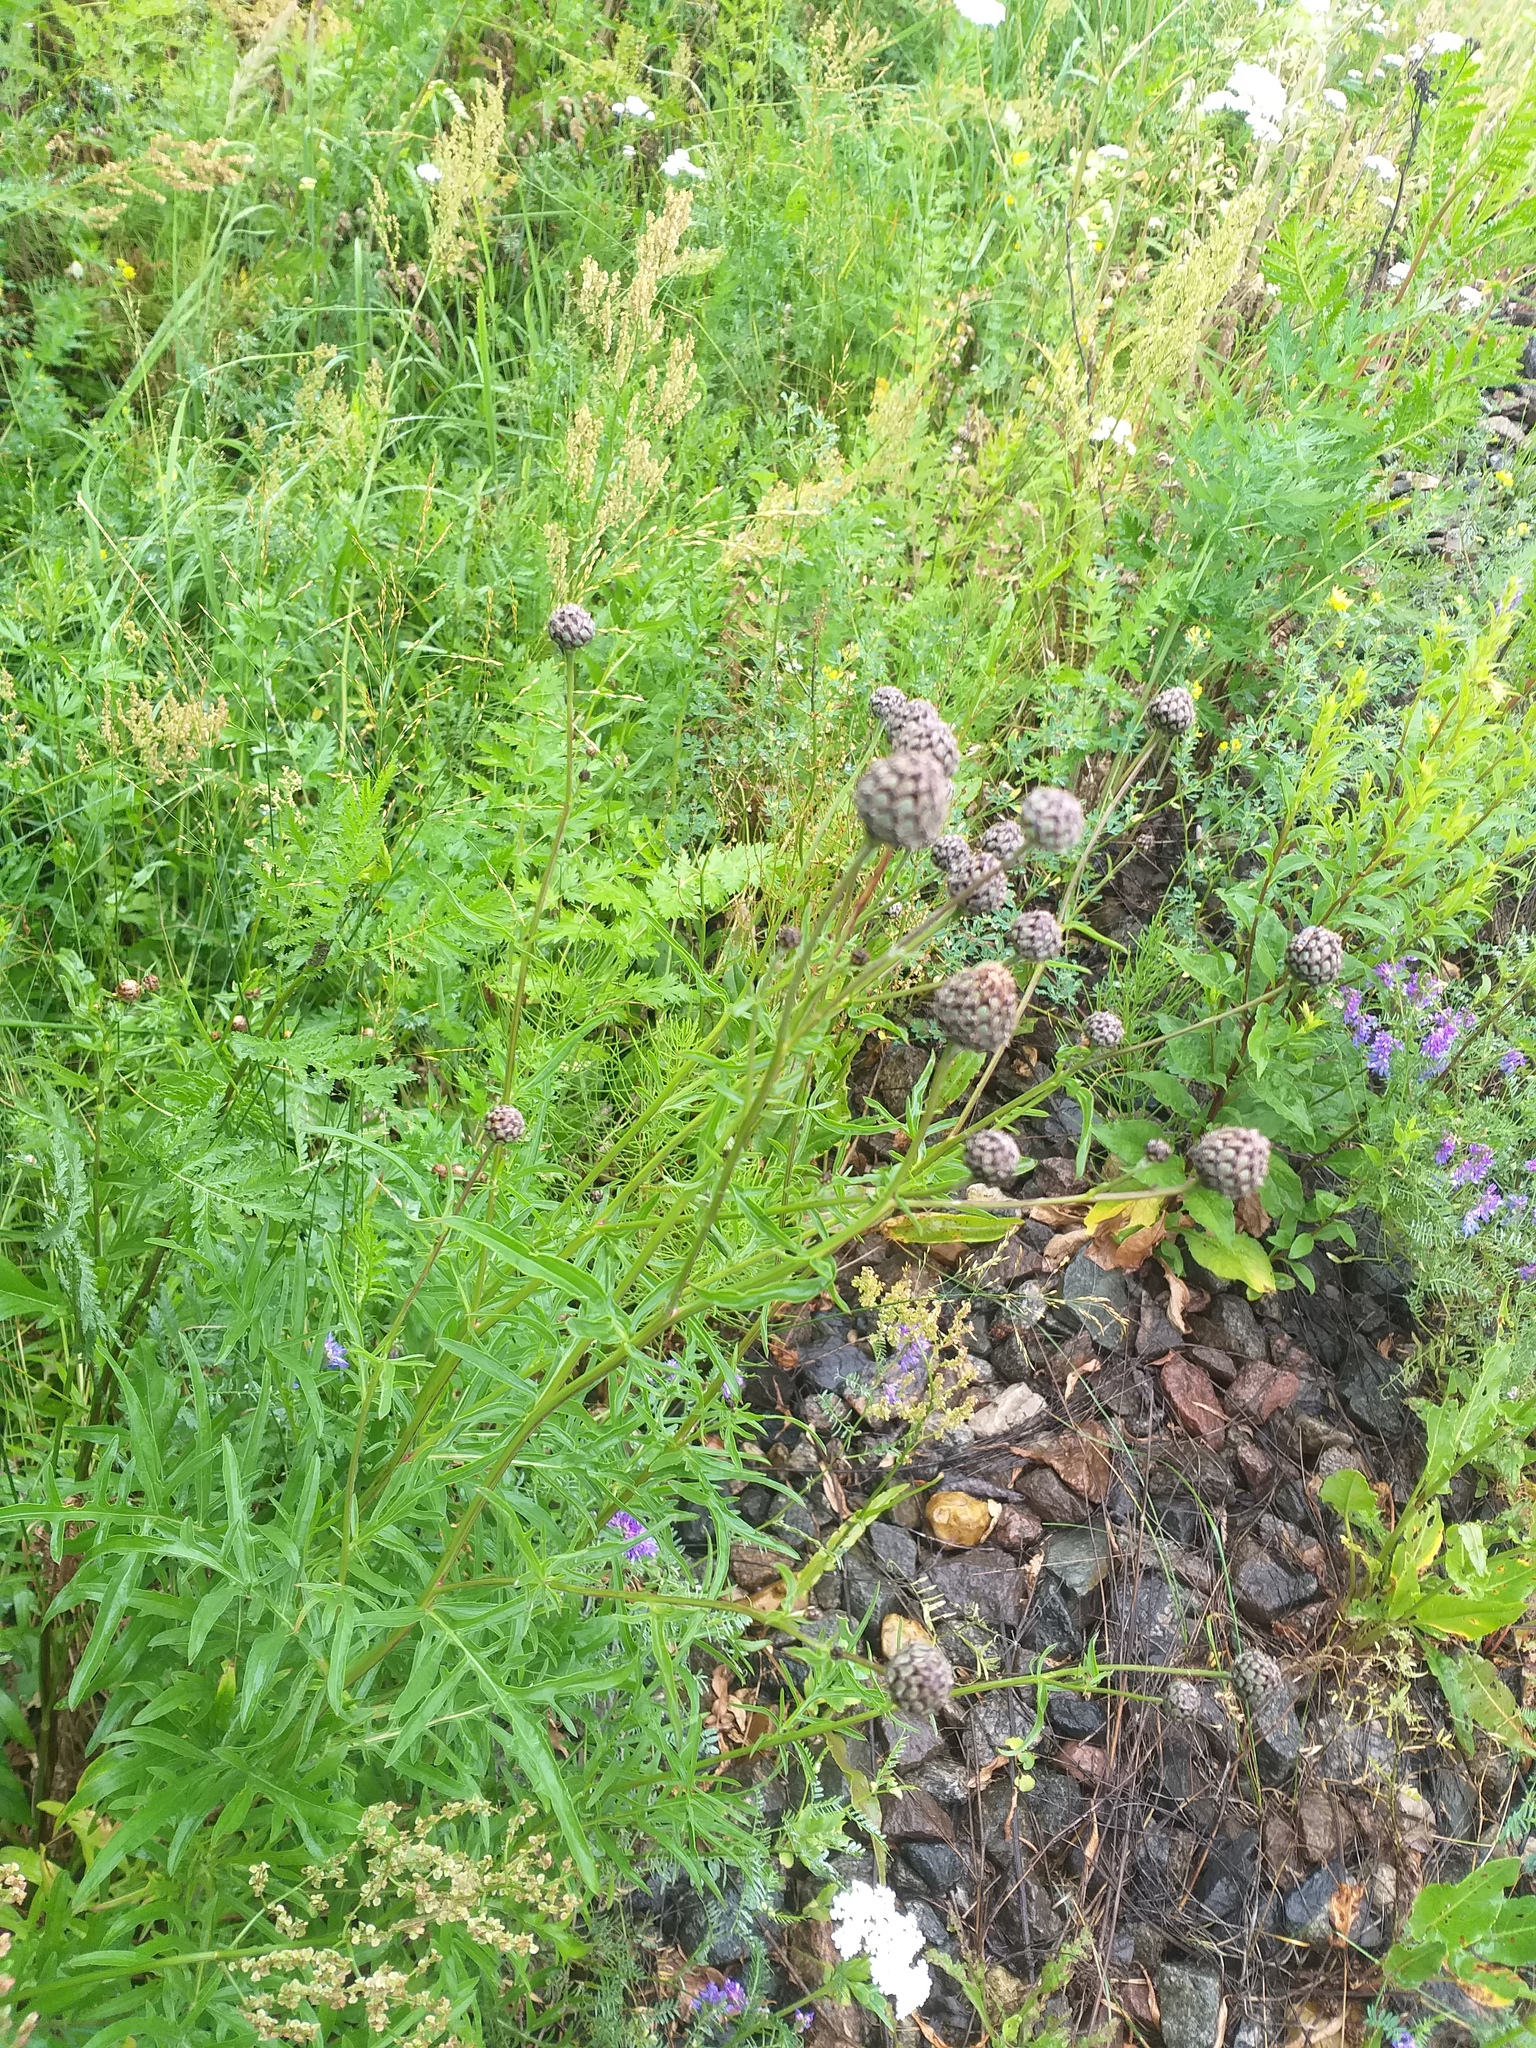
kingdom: Plantae
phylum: Tracheophyta
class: Magnoliopsida
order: Asterales
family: Asteraceae
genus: Centaurea
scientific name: Centaurea scabiosa
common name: Greater knapweed
